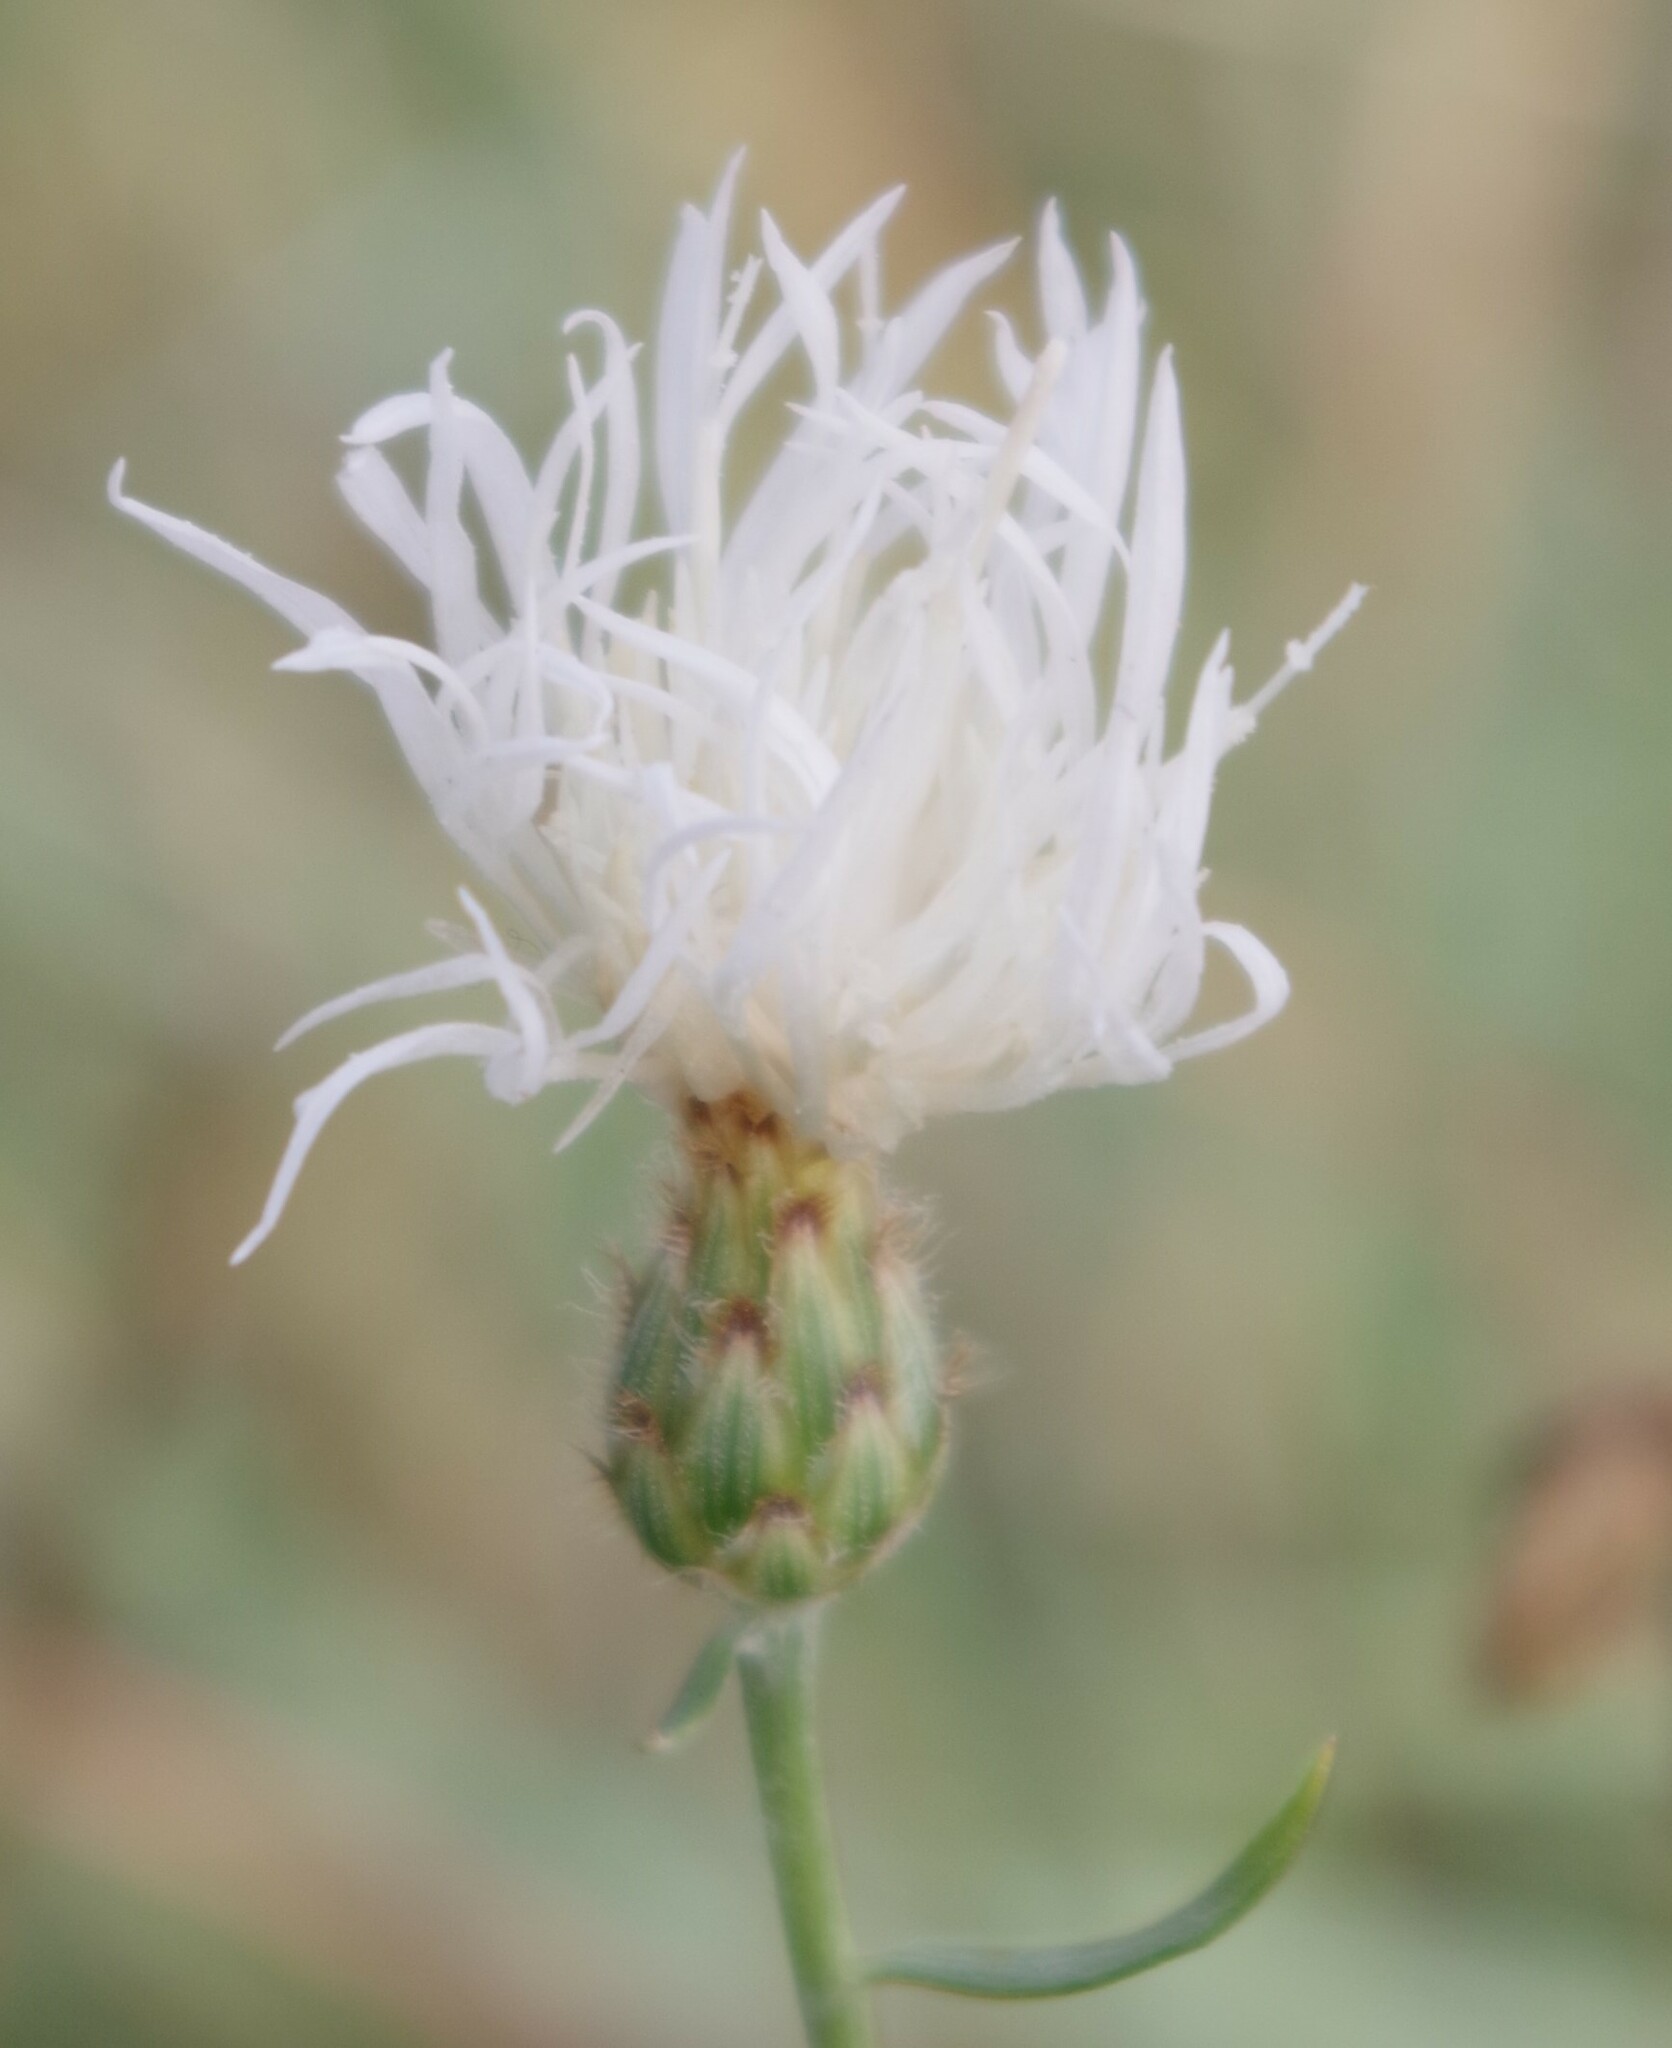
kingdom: Plantae
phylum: Tracheophyta
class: Magnoliopsida
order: Asterales
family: Asteraceae
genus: Centaurea
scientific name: Centaurea australis
